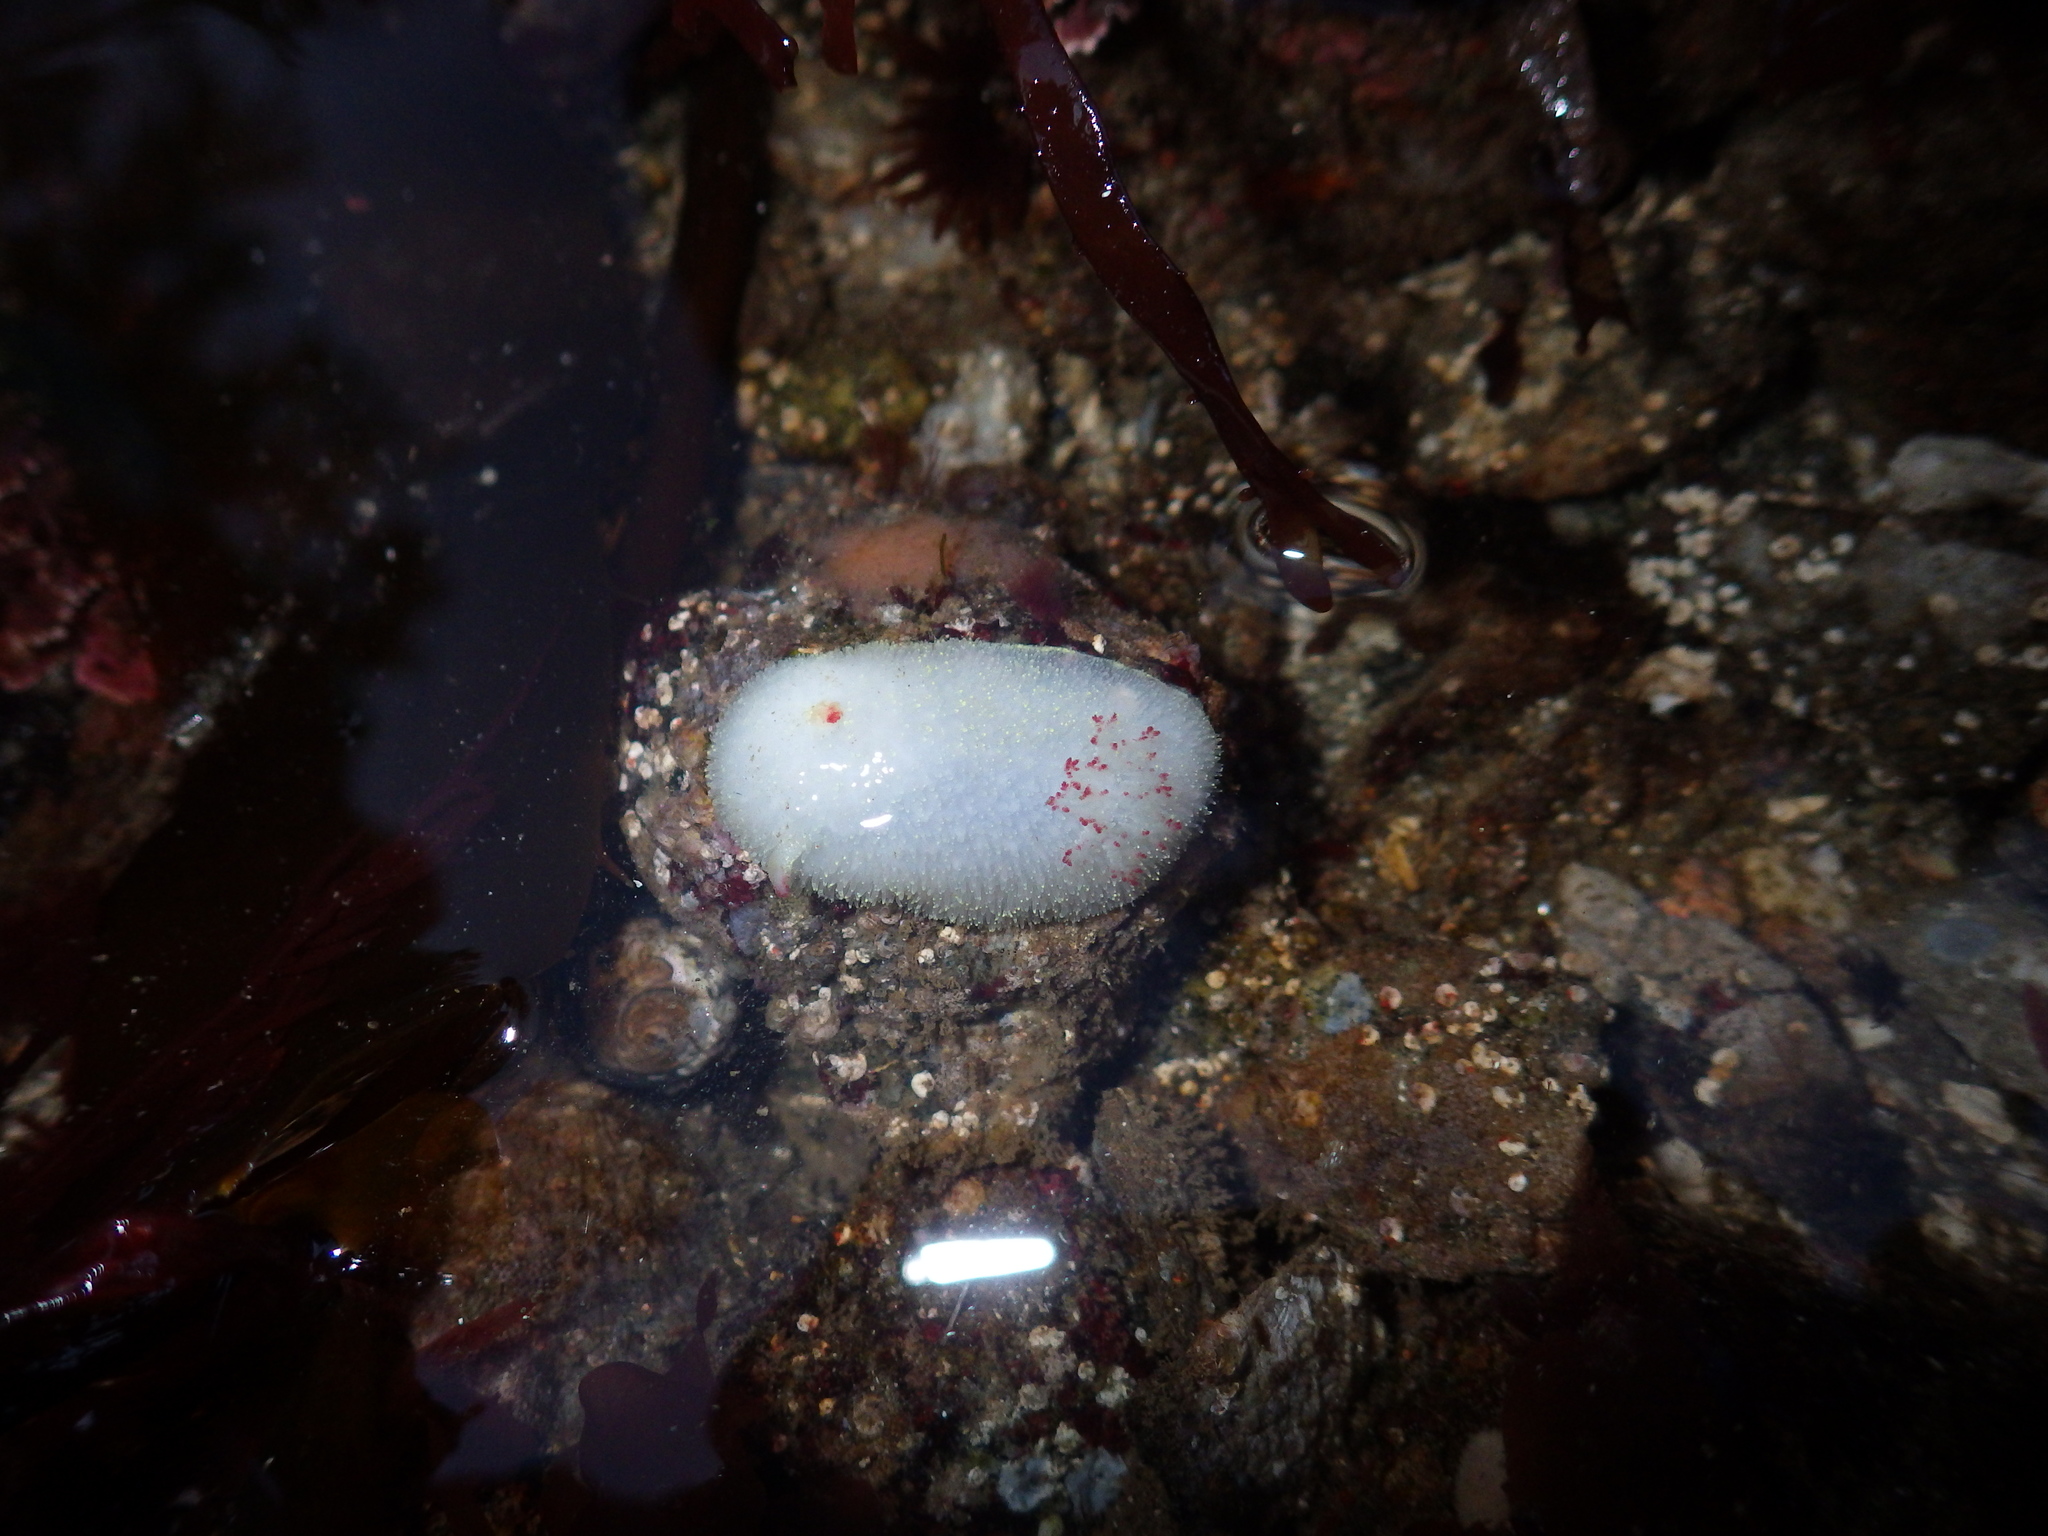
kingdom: Animalia
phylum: Mollusca
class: Gastropoda
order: Nudibranchia
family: Onchidorididae
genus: Acanthodoris
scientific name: Acanthodoris nanaimoensis
